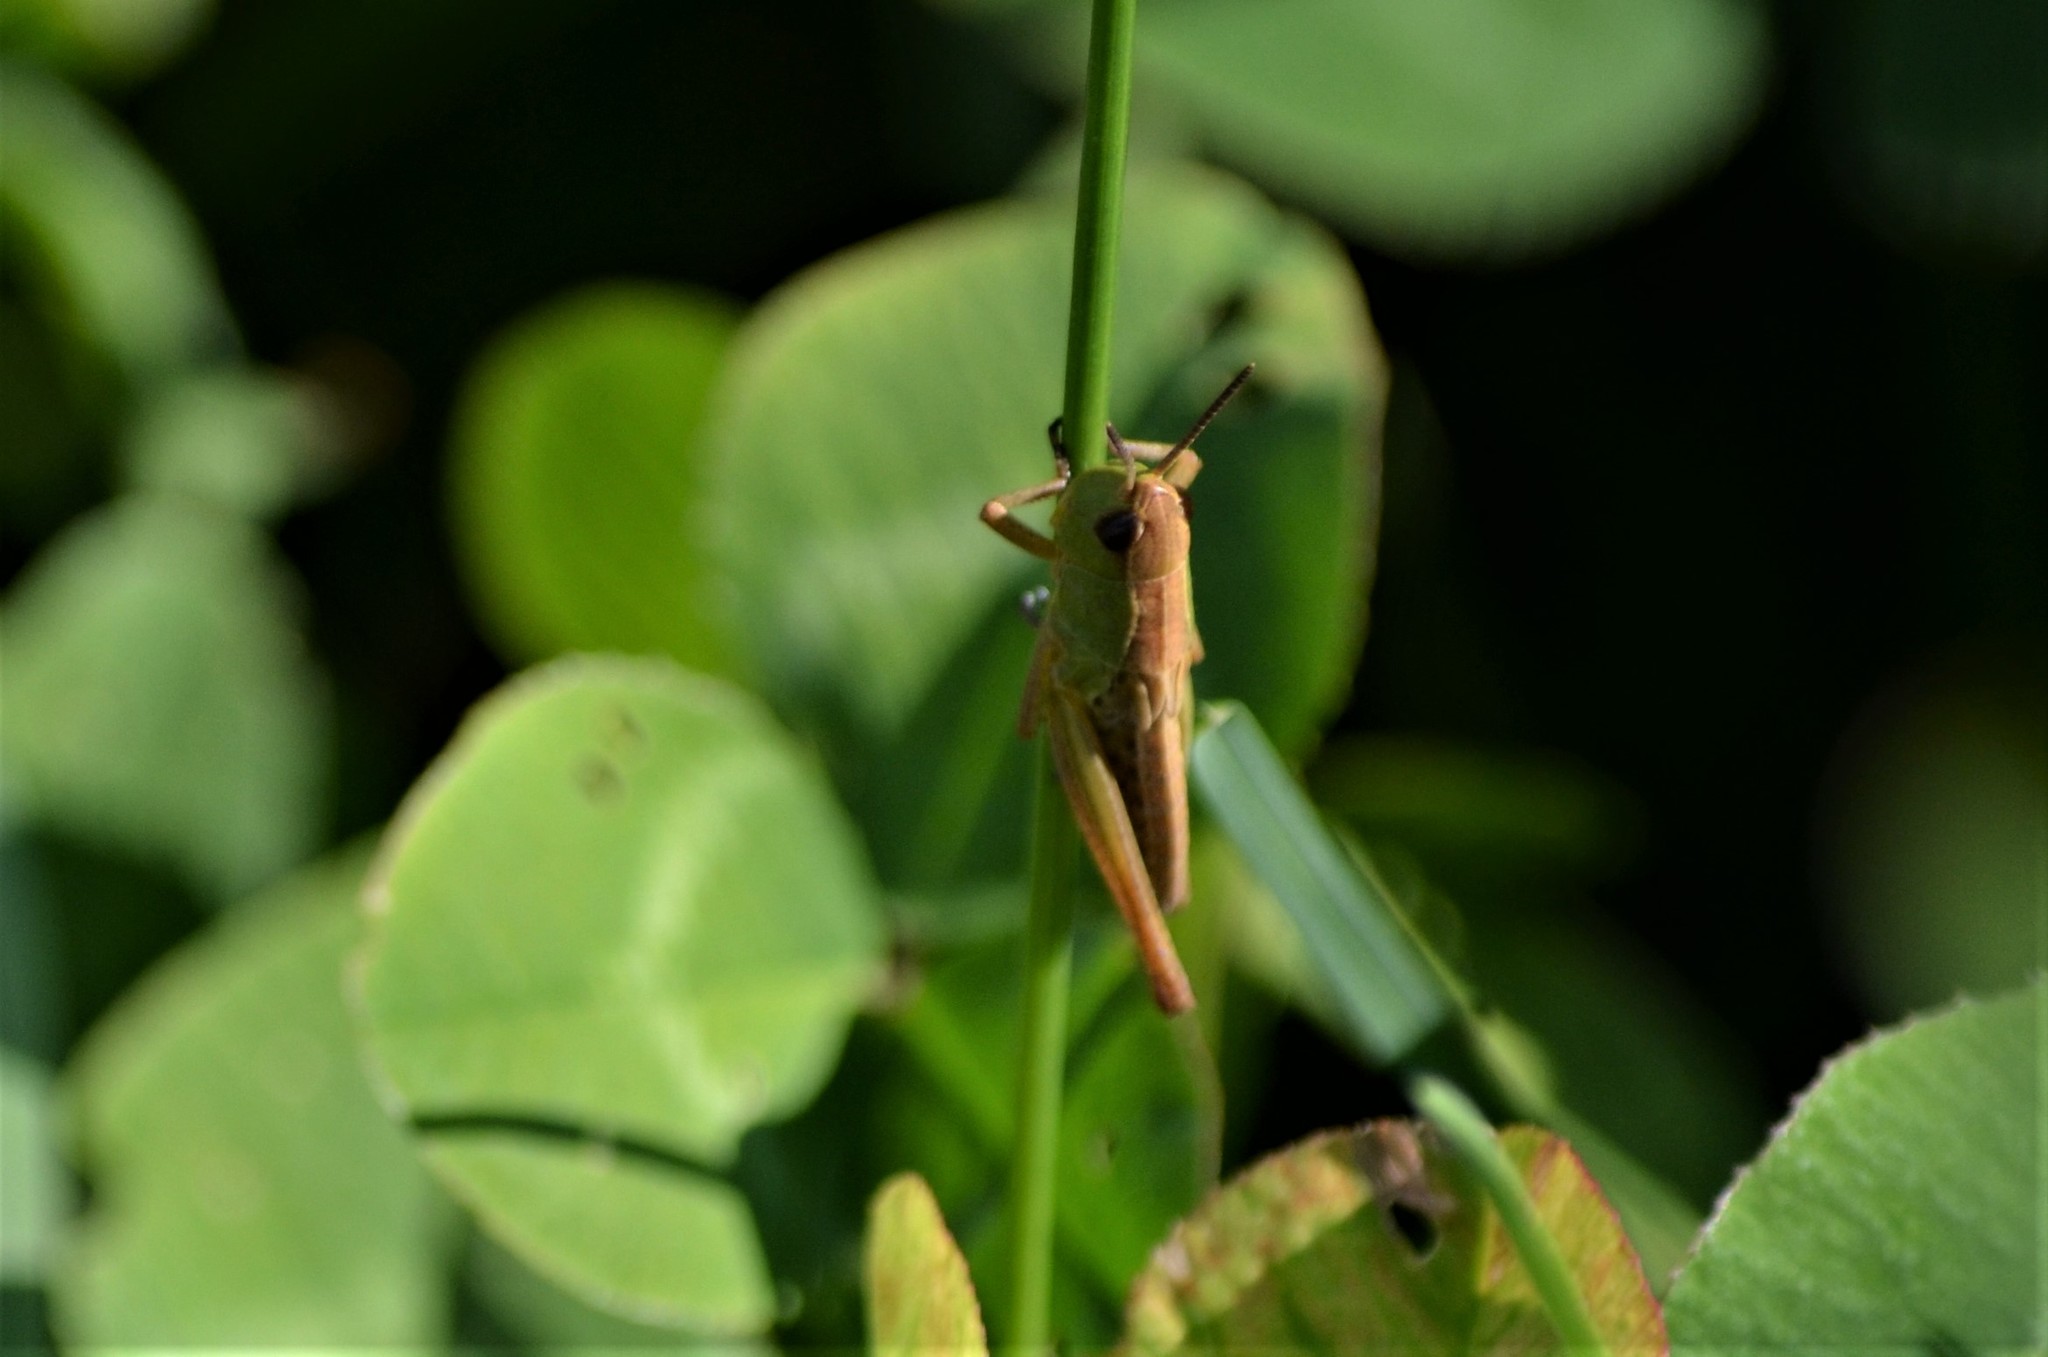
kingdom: Animalia
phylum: Arthropoda
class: Insecta
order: Orthoptera
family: Acrididae
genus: Pseudochorthippus
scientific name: Pseudochorthippus parallelus
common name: Meadow grasshopper
